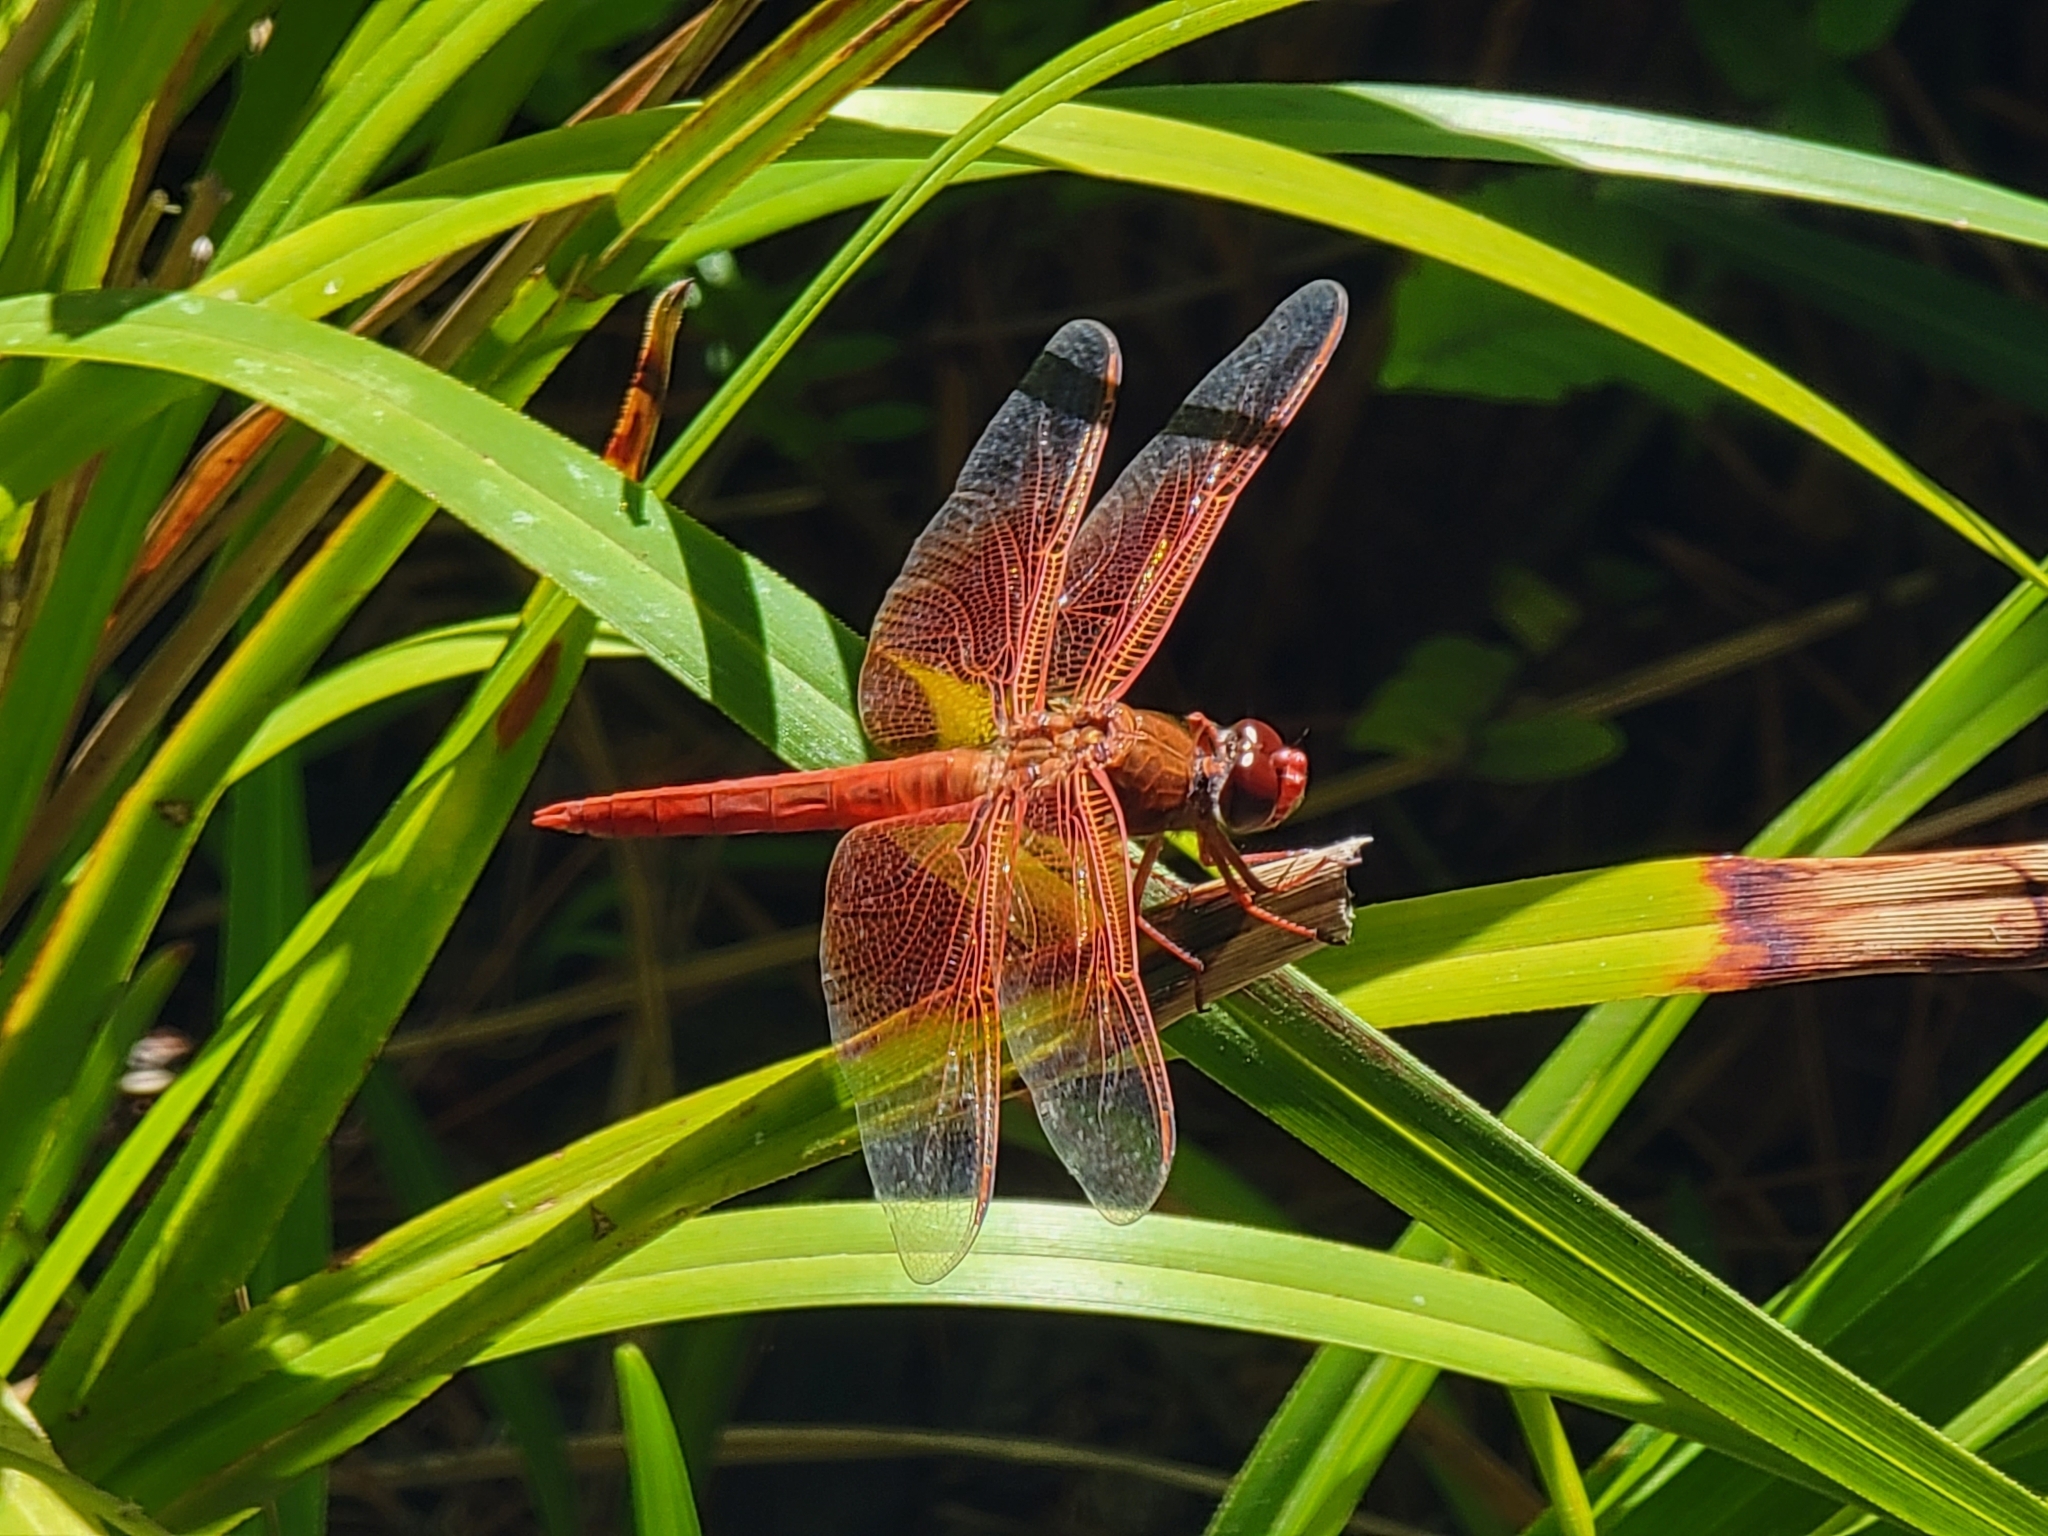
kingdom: Animalia
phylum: Arthropoda
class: Insecta
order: Odonata
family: Libellulidae
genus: Libellula
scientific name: Libellula saturata
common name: Flame skimmer
